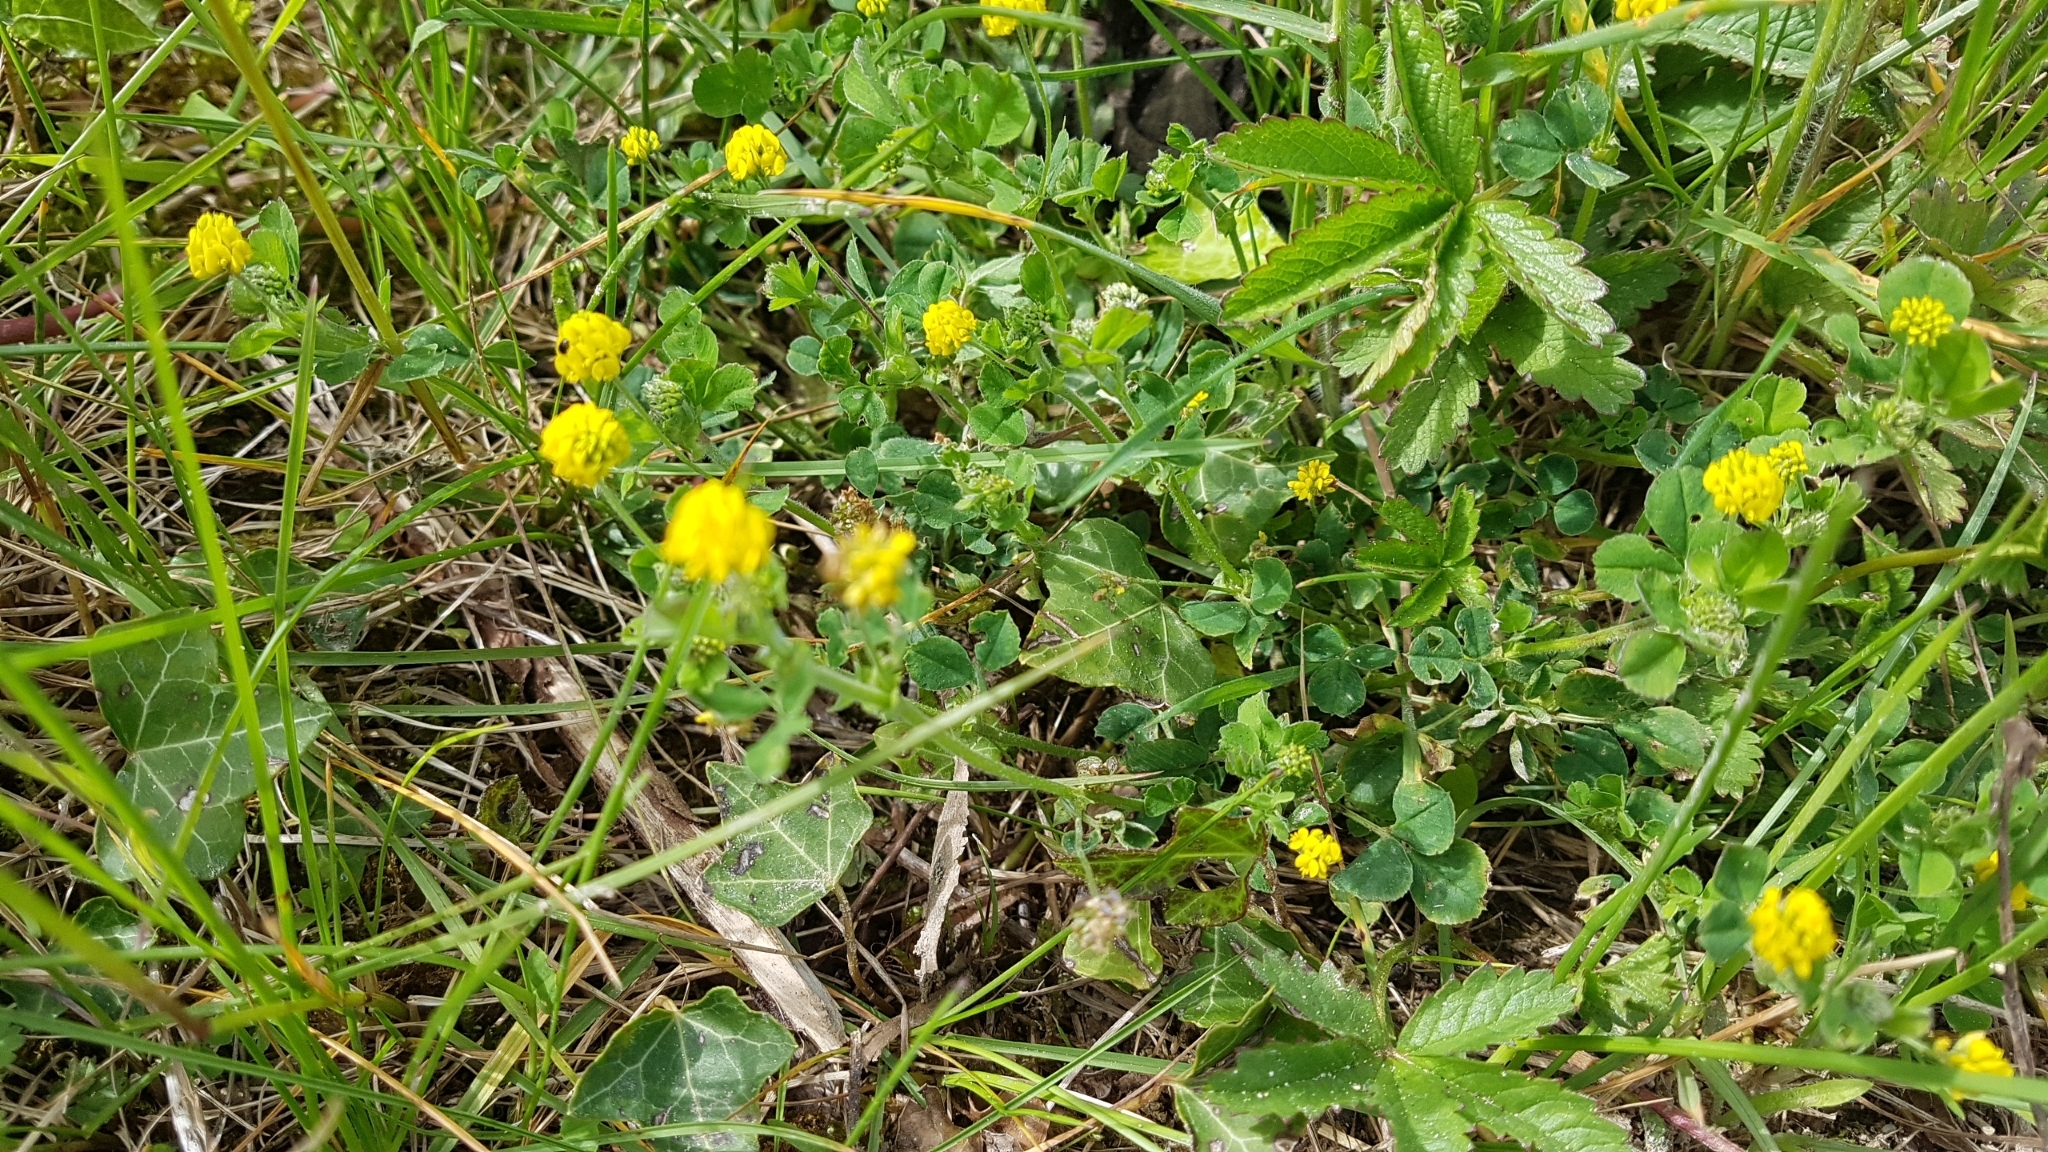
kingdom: Plantae
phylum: Tracheophyta
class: Magnoliopsida
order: Fabales
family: Fabaceae
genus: Medicago
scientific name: Medicago lupulina
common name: Black medick
